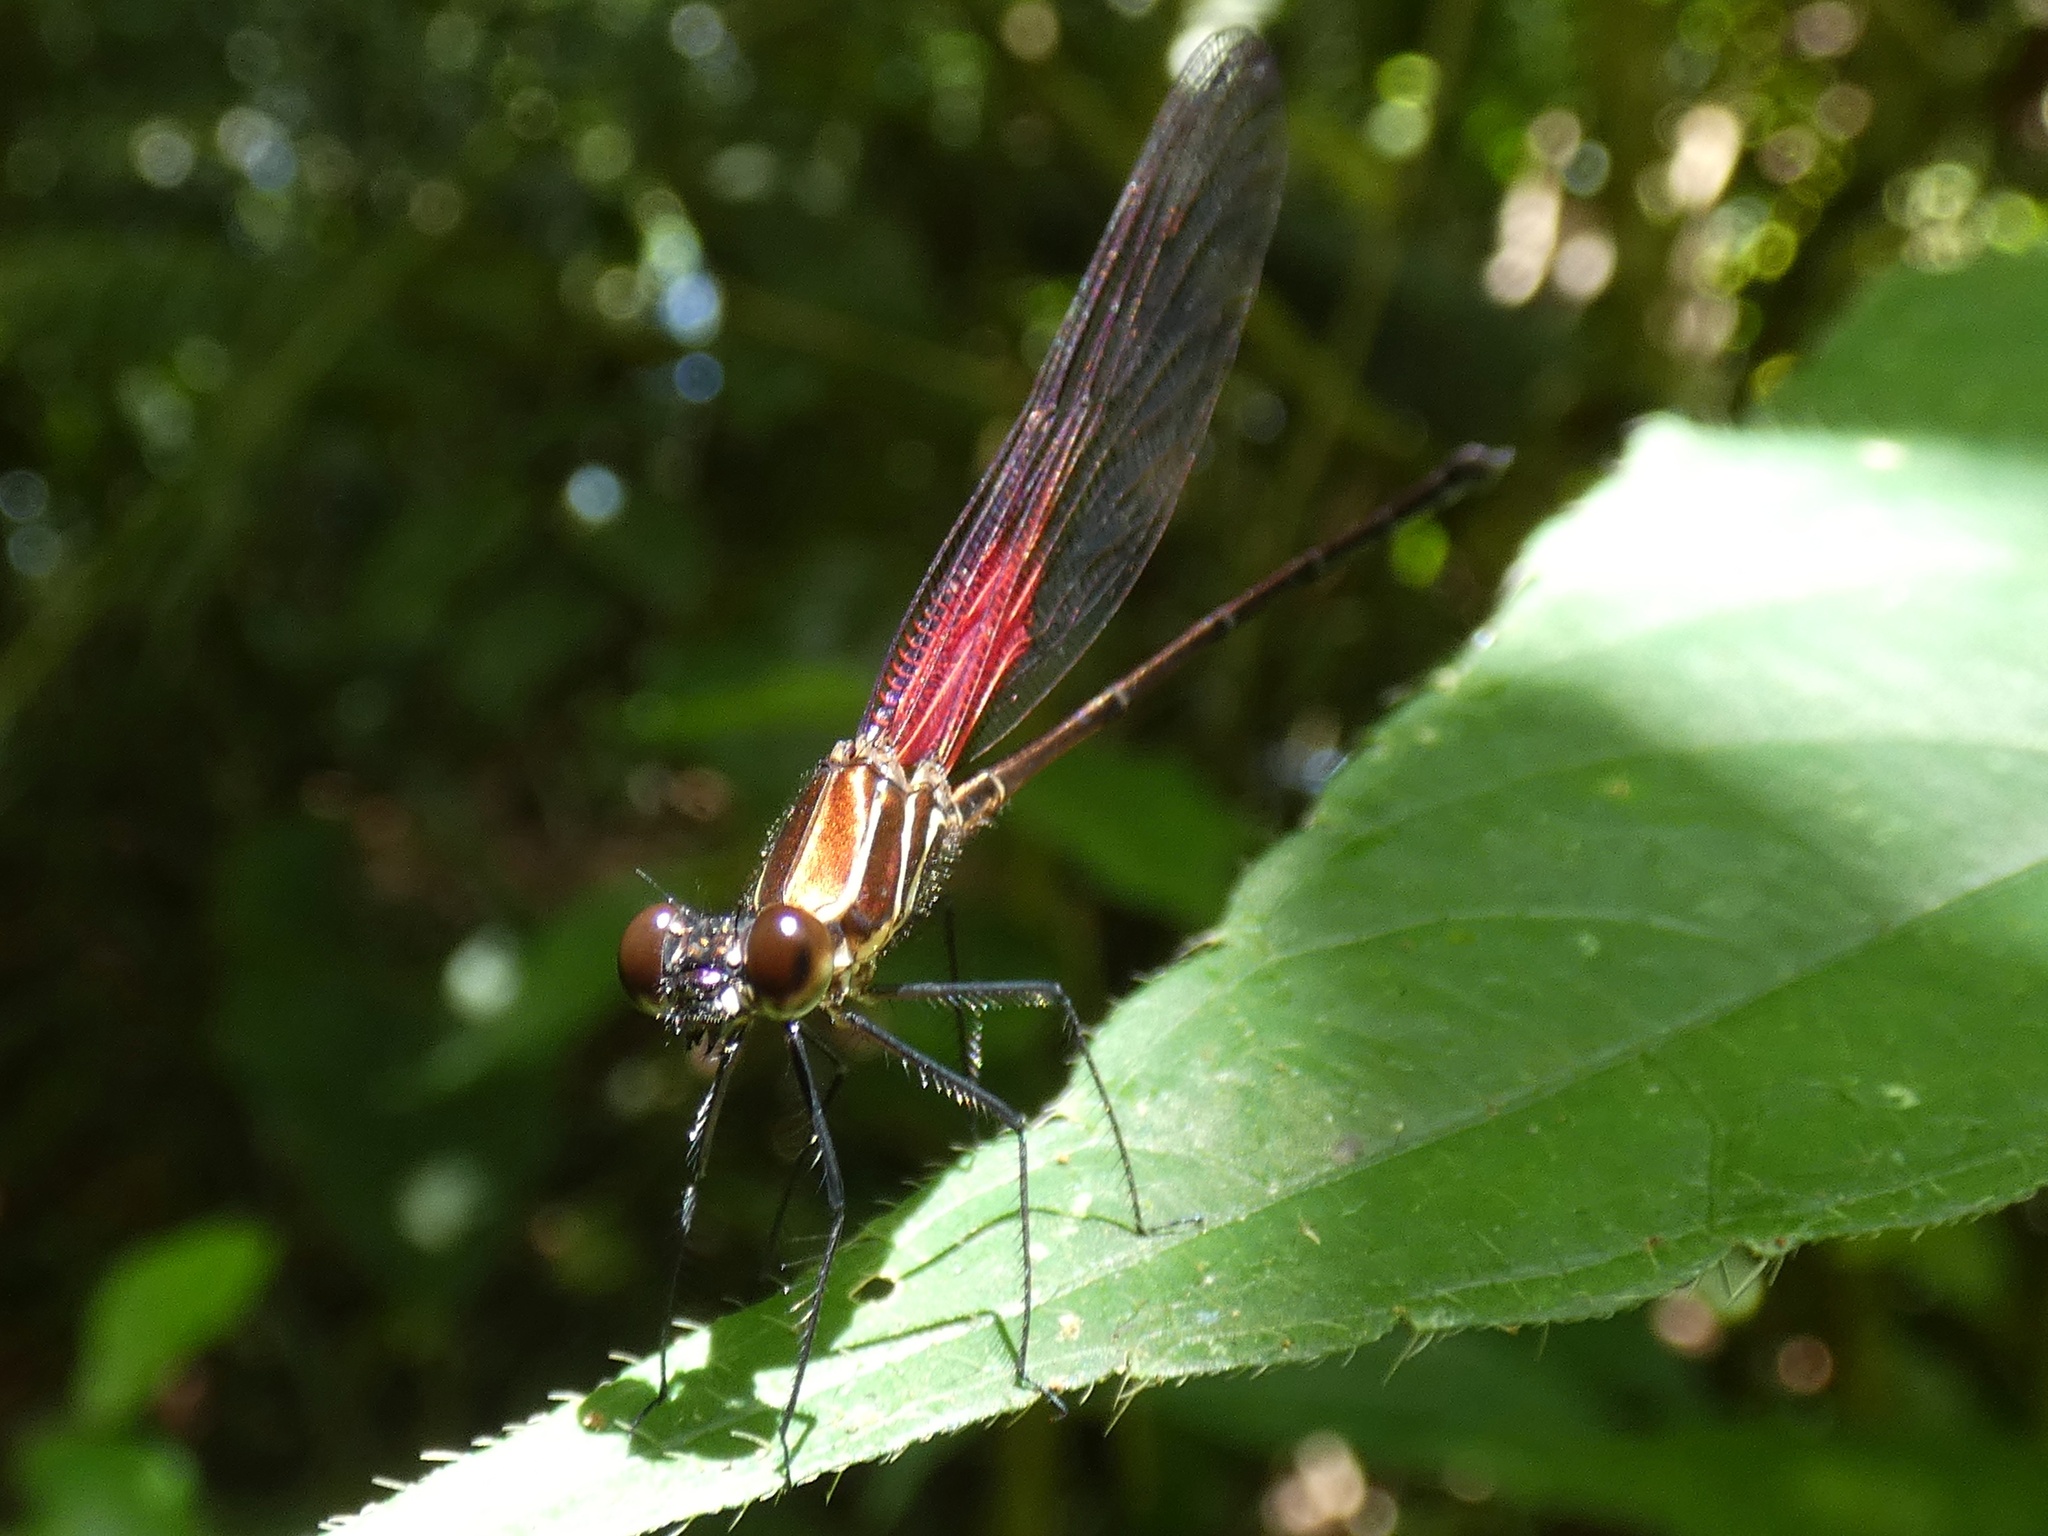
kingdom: Animalia
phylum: Arthropoda
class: Insecta
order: Odonata
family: Calopterygidae
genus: Hetaerina
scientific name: Hetaerina miniata
